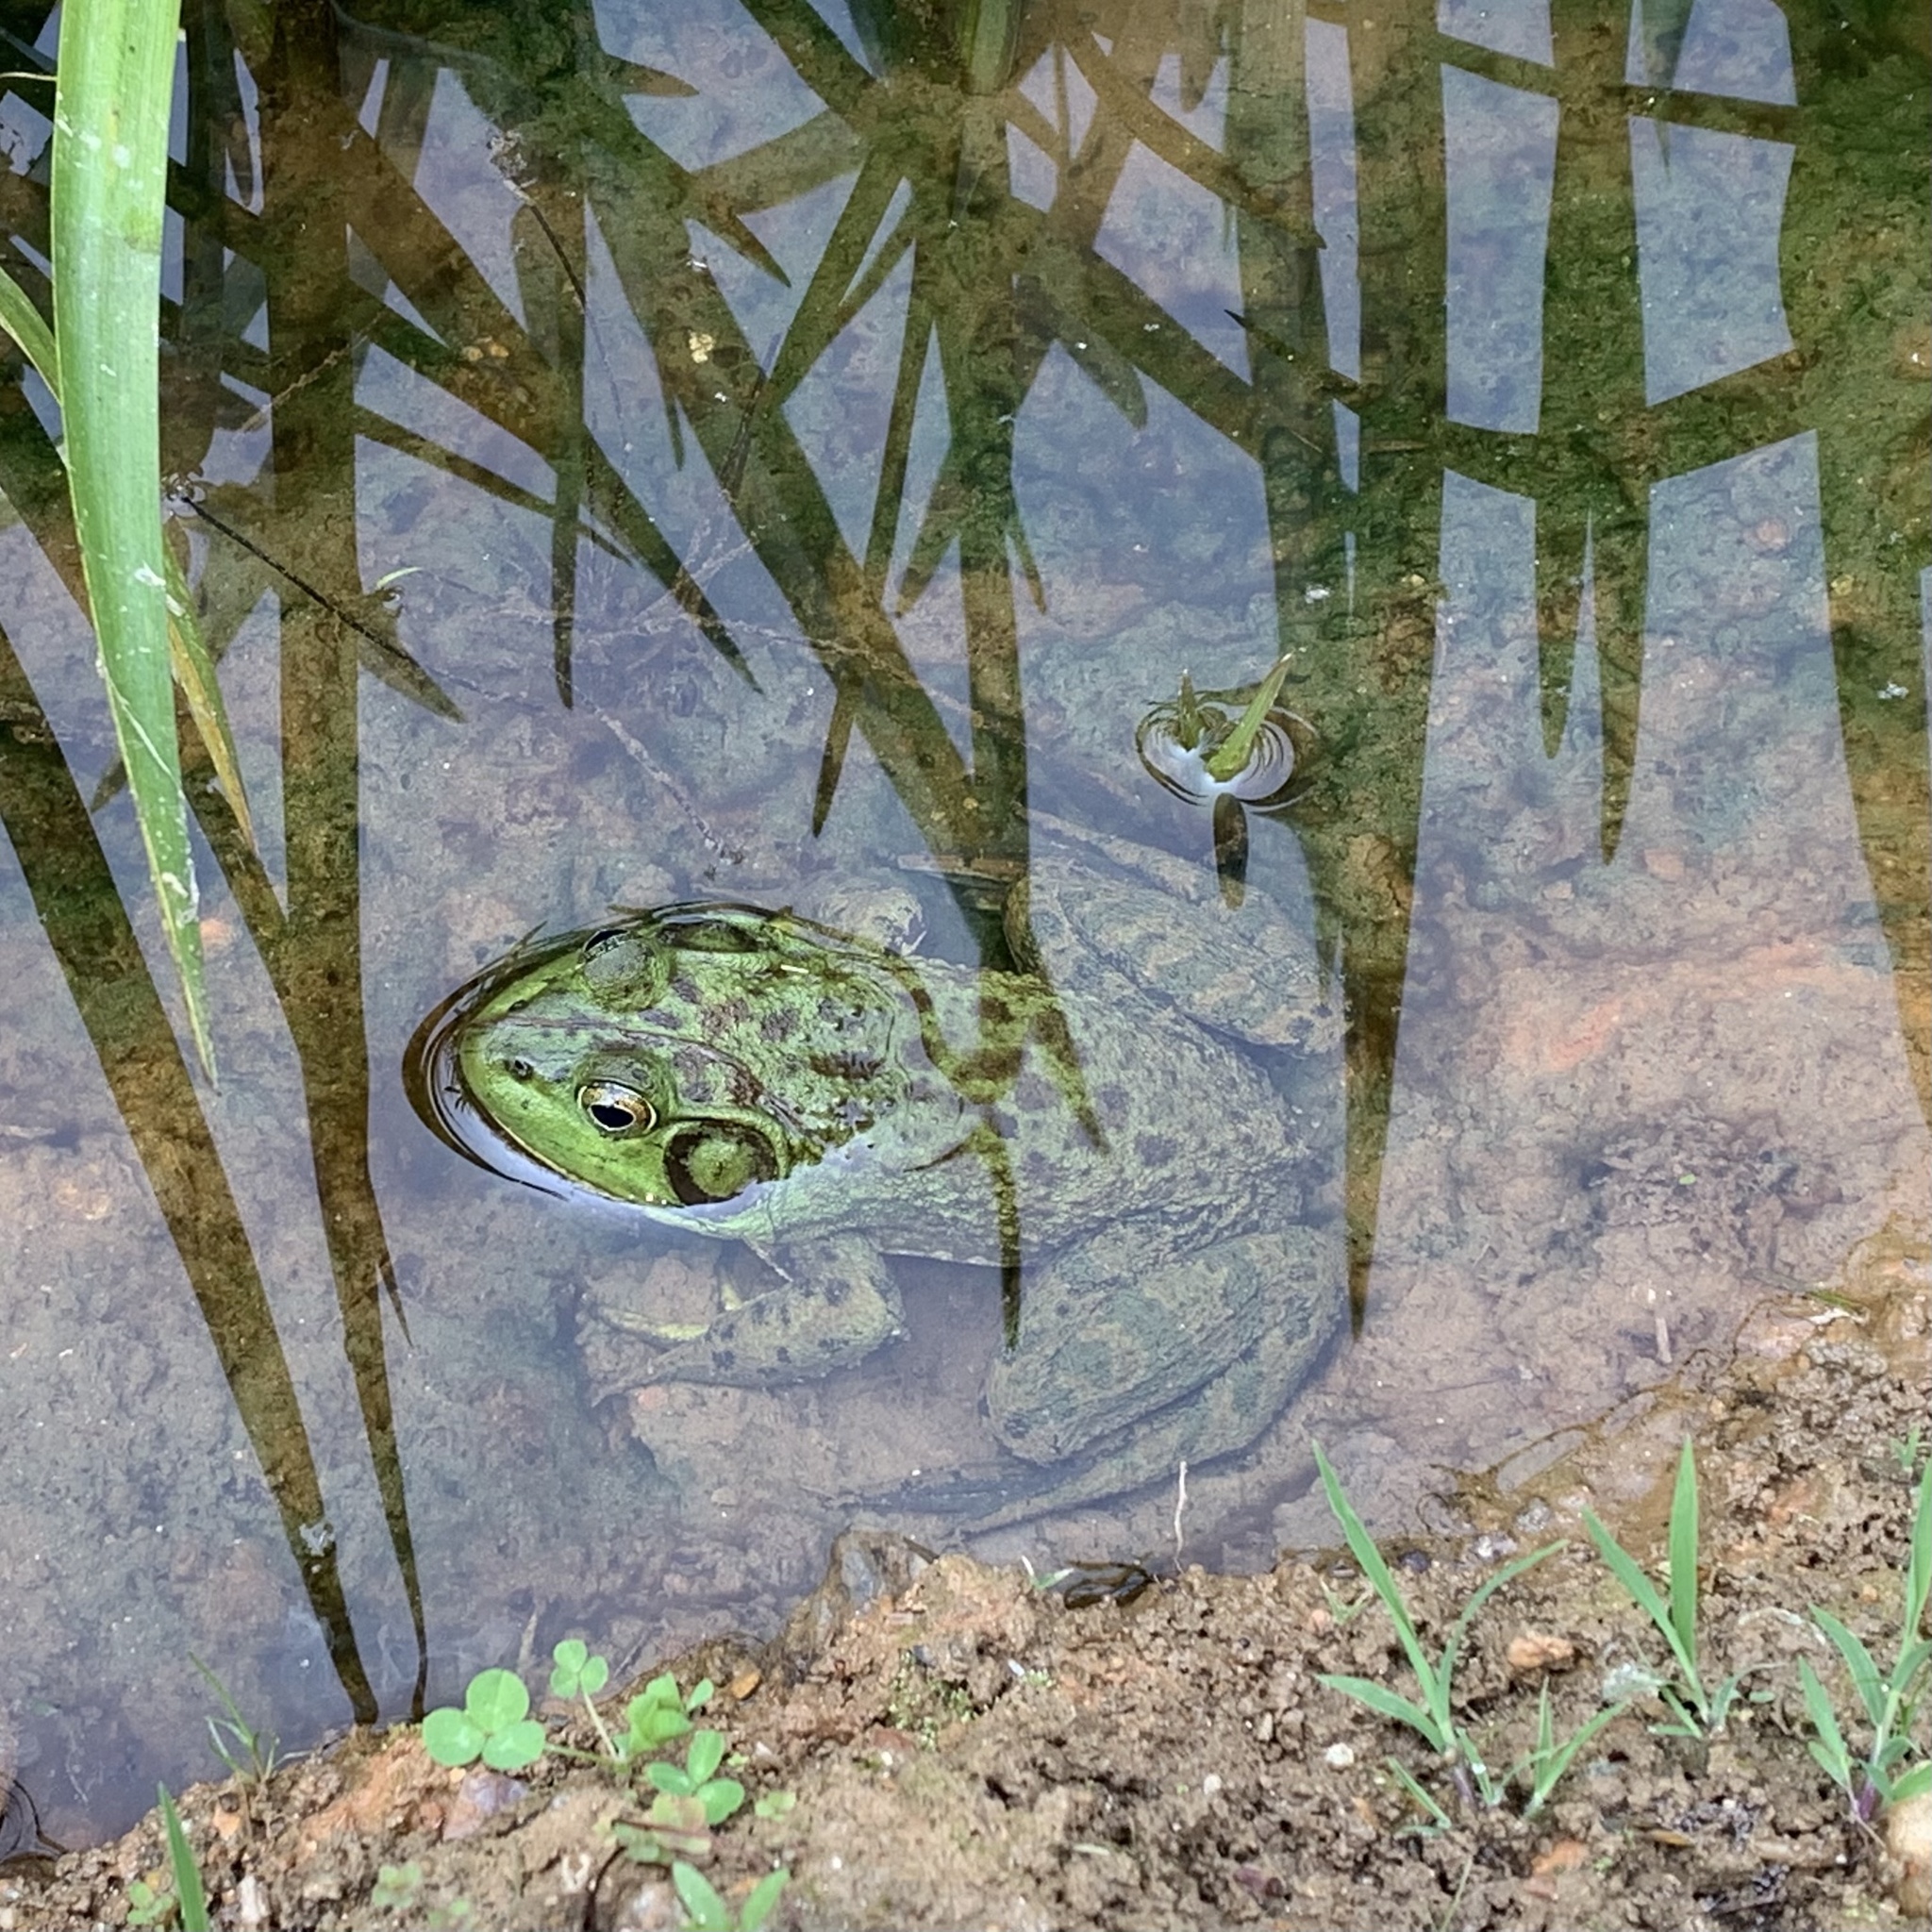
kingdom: Animalia
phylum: Chordata
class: Amphibia
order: Anura
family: Ranidae
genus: Lithobates
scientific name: Lithobates catesbeianus
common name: American bullfrog
